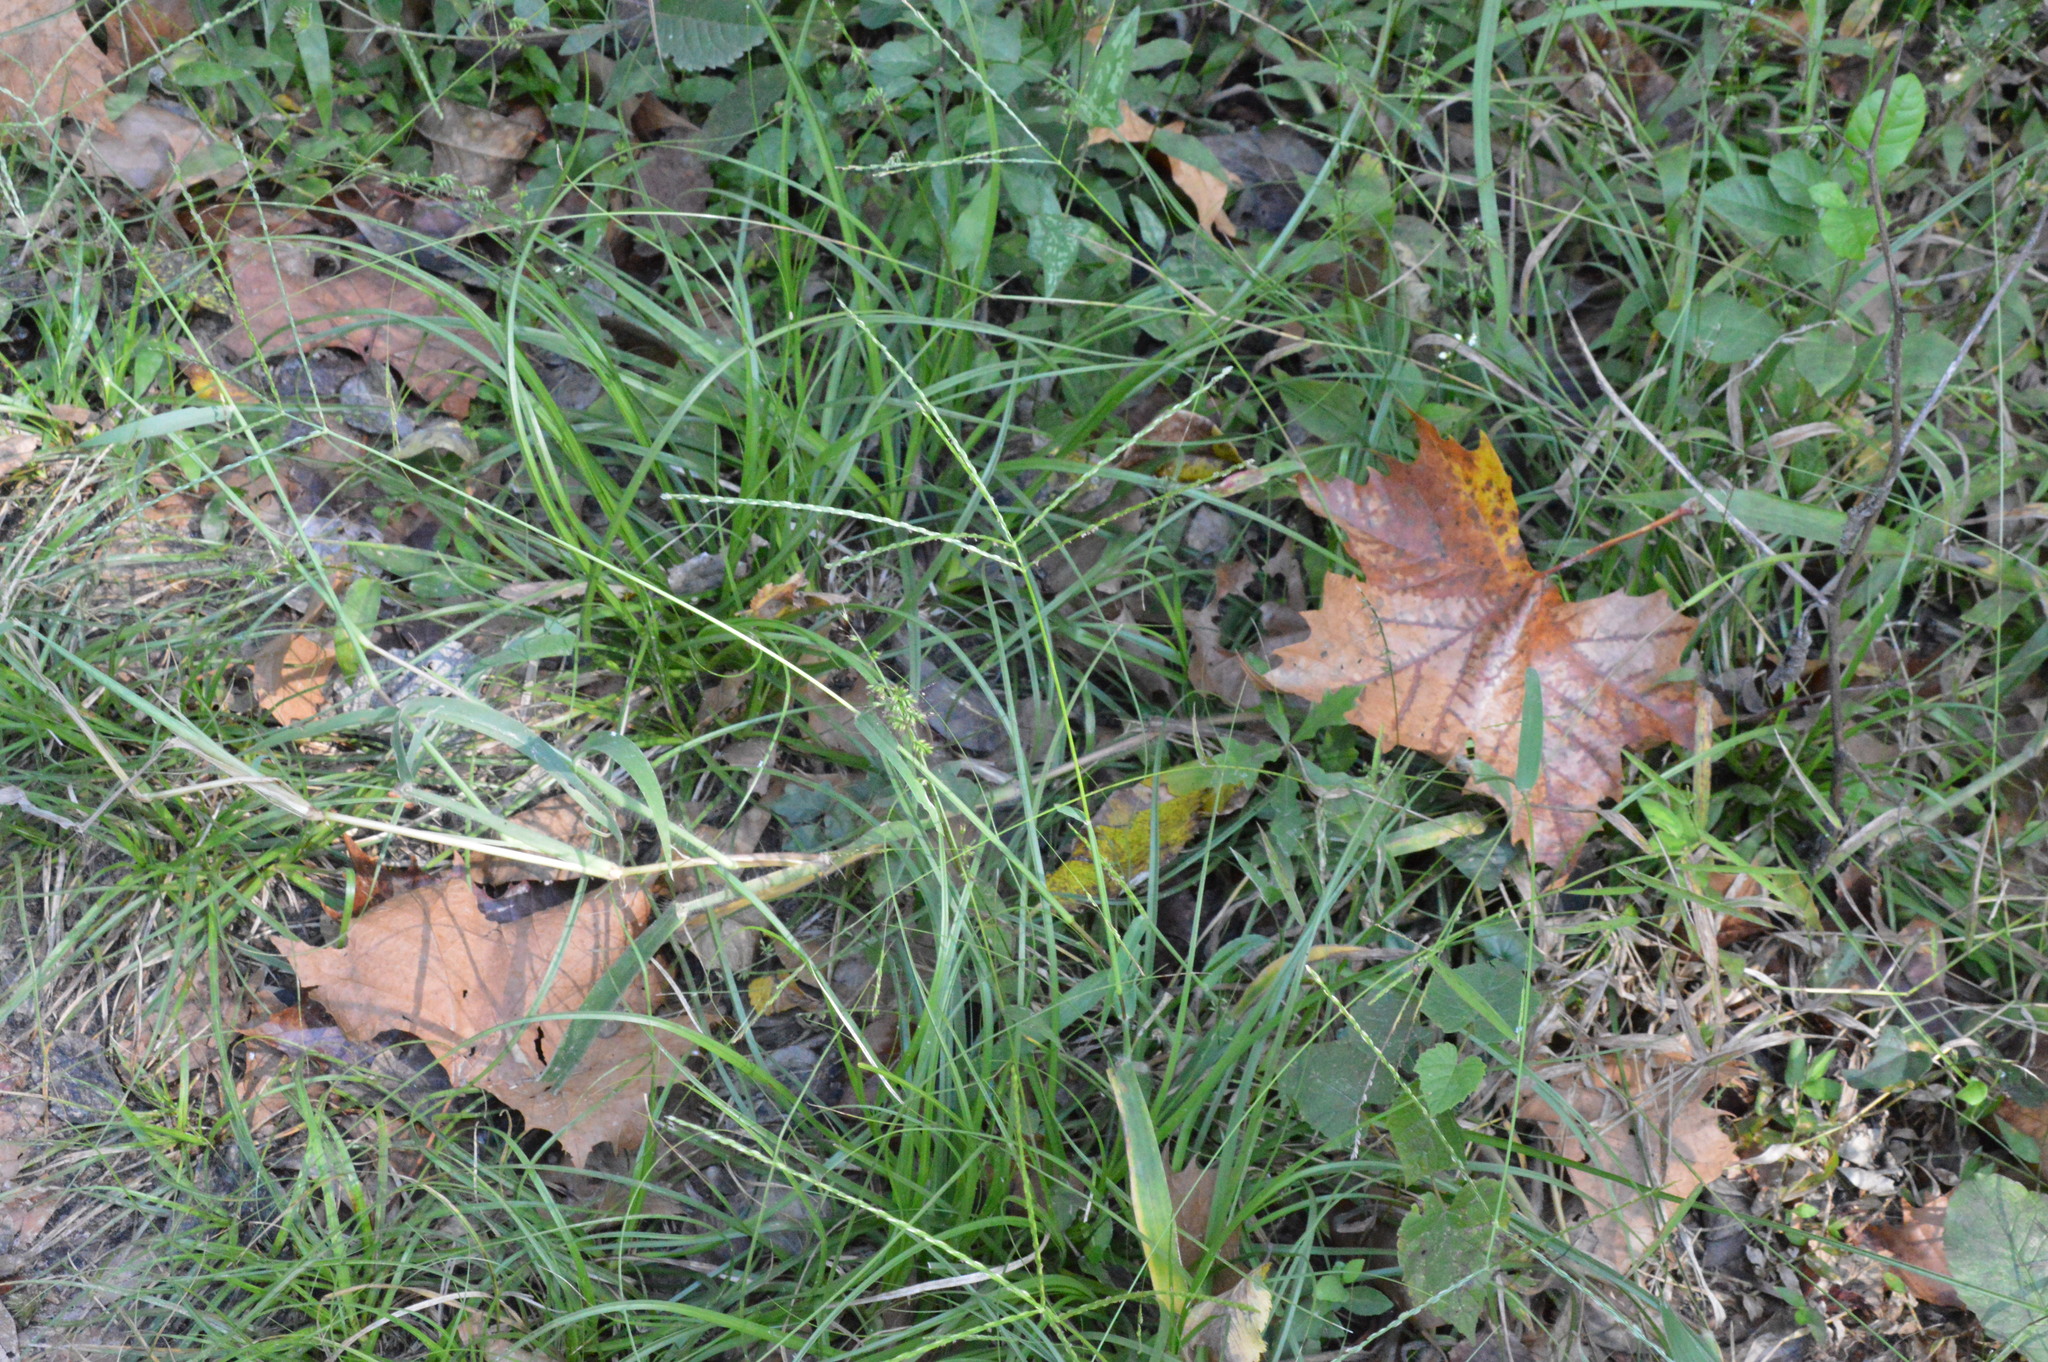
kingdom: Plantae
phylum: Tracheophyta
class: Liliopsida
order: Poales
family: Poaceae
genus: Oplismenus
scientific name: Oplismenus hirtellus
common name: Basketgrass
